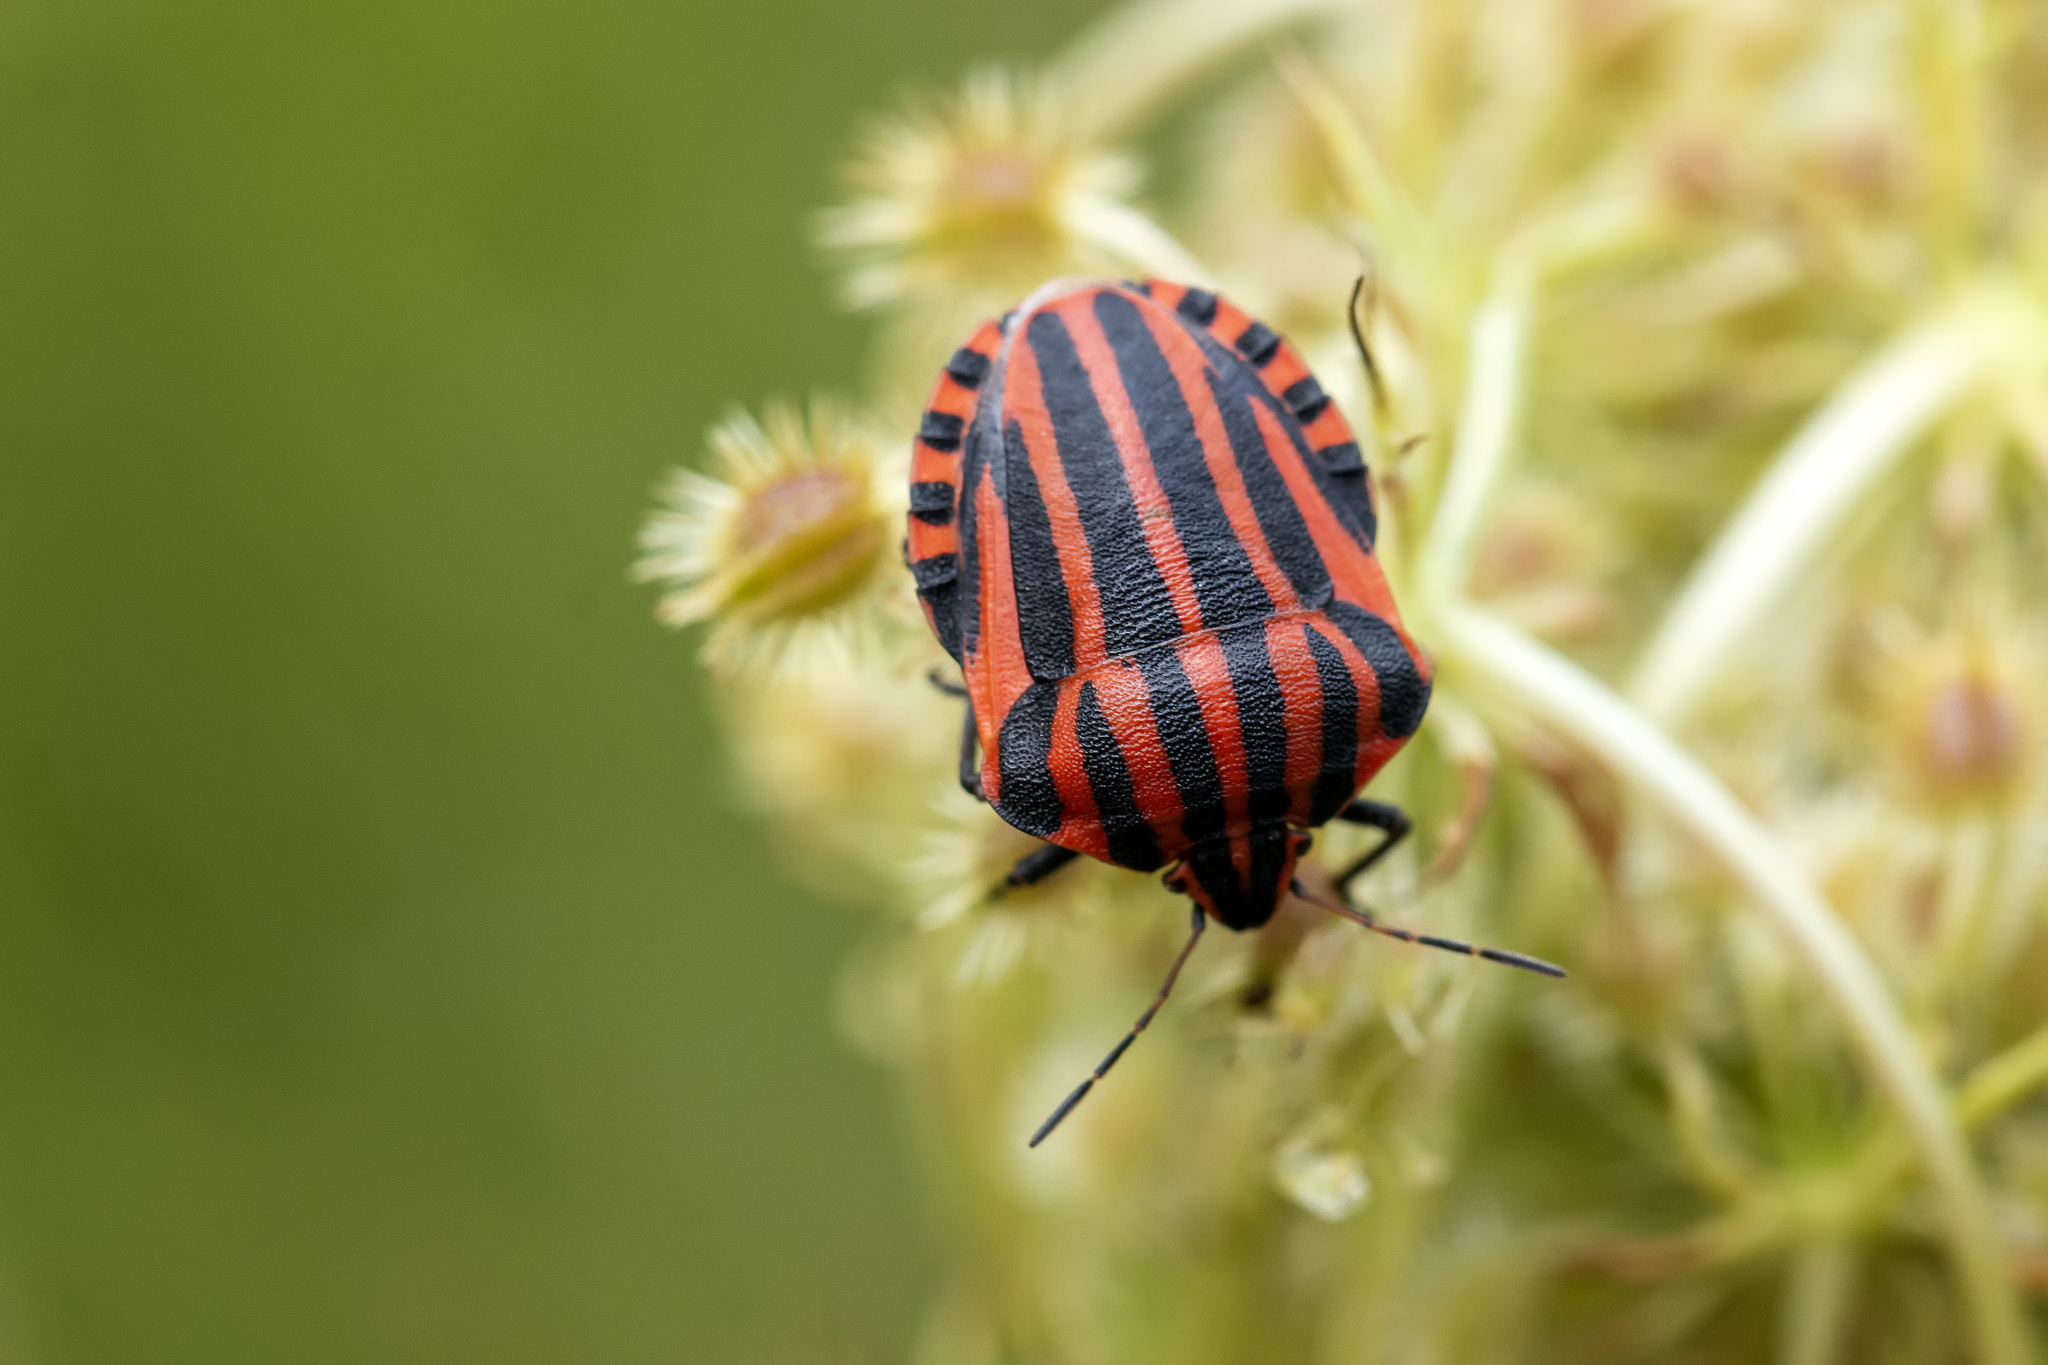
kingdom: Animalia
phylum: Arthropoda
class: Insecta
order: Hemiptera
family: Pentatomidae
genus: Graphosoma
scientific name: Graphosoma italicum
